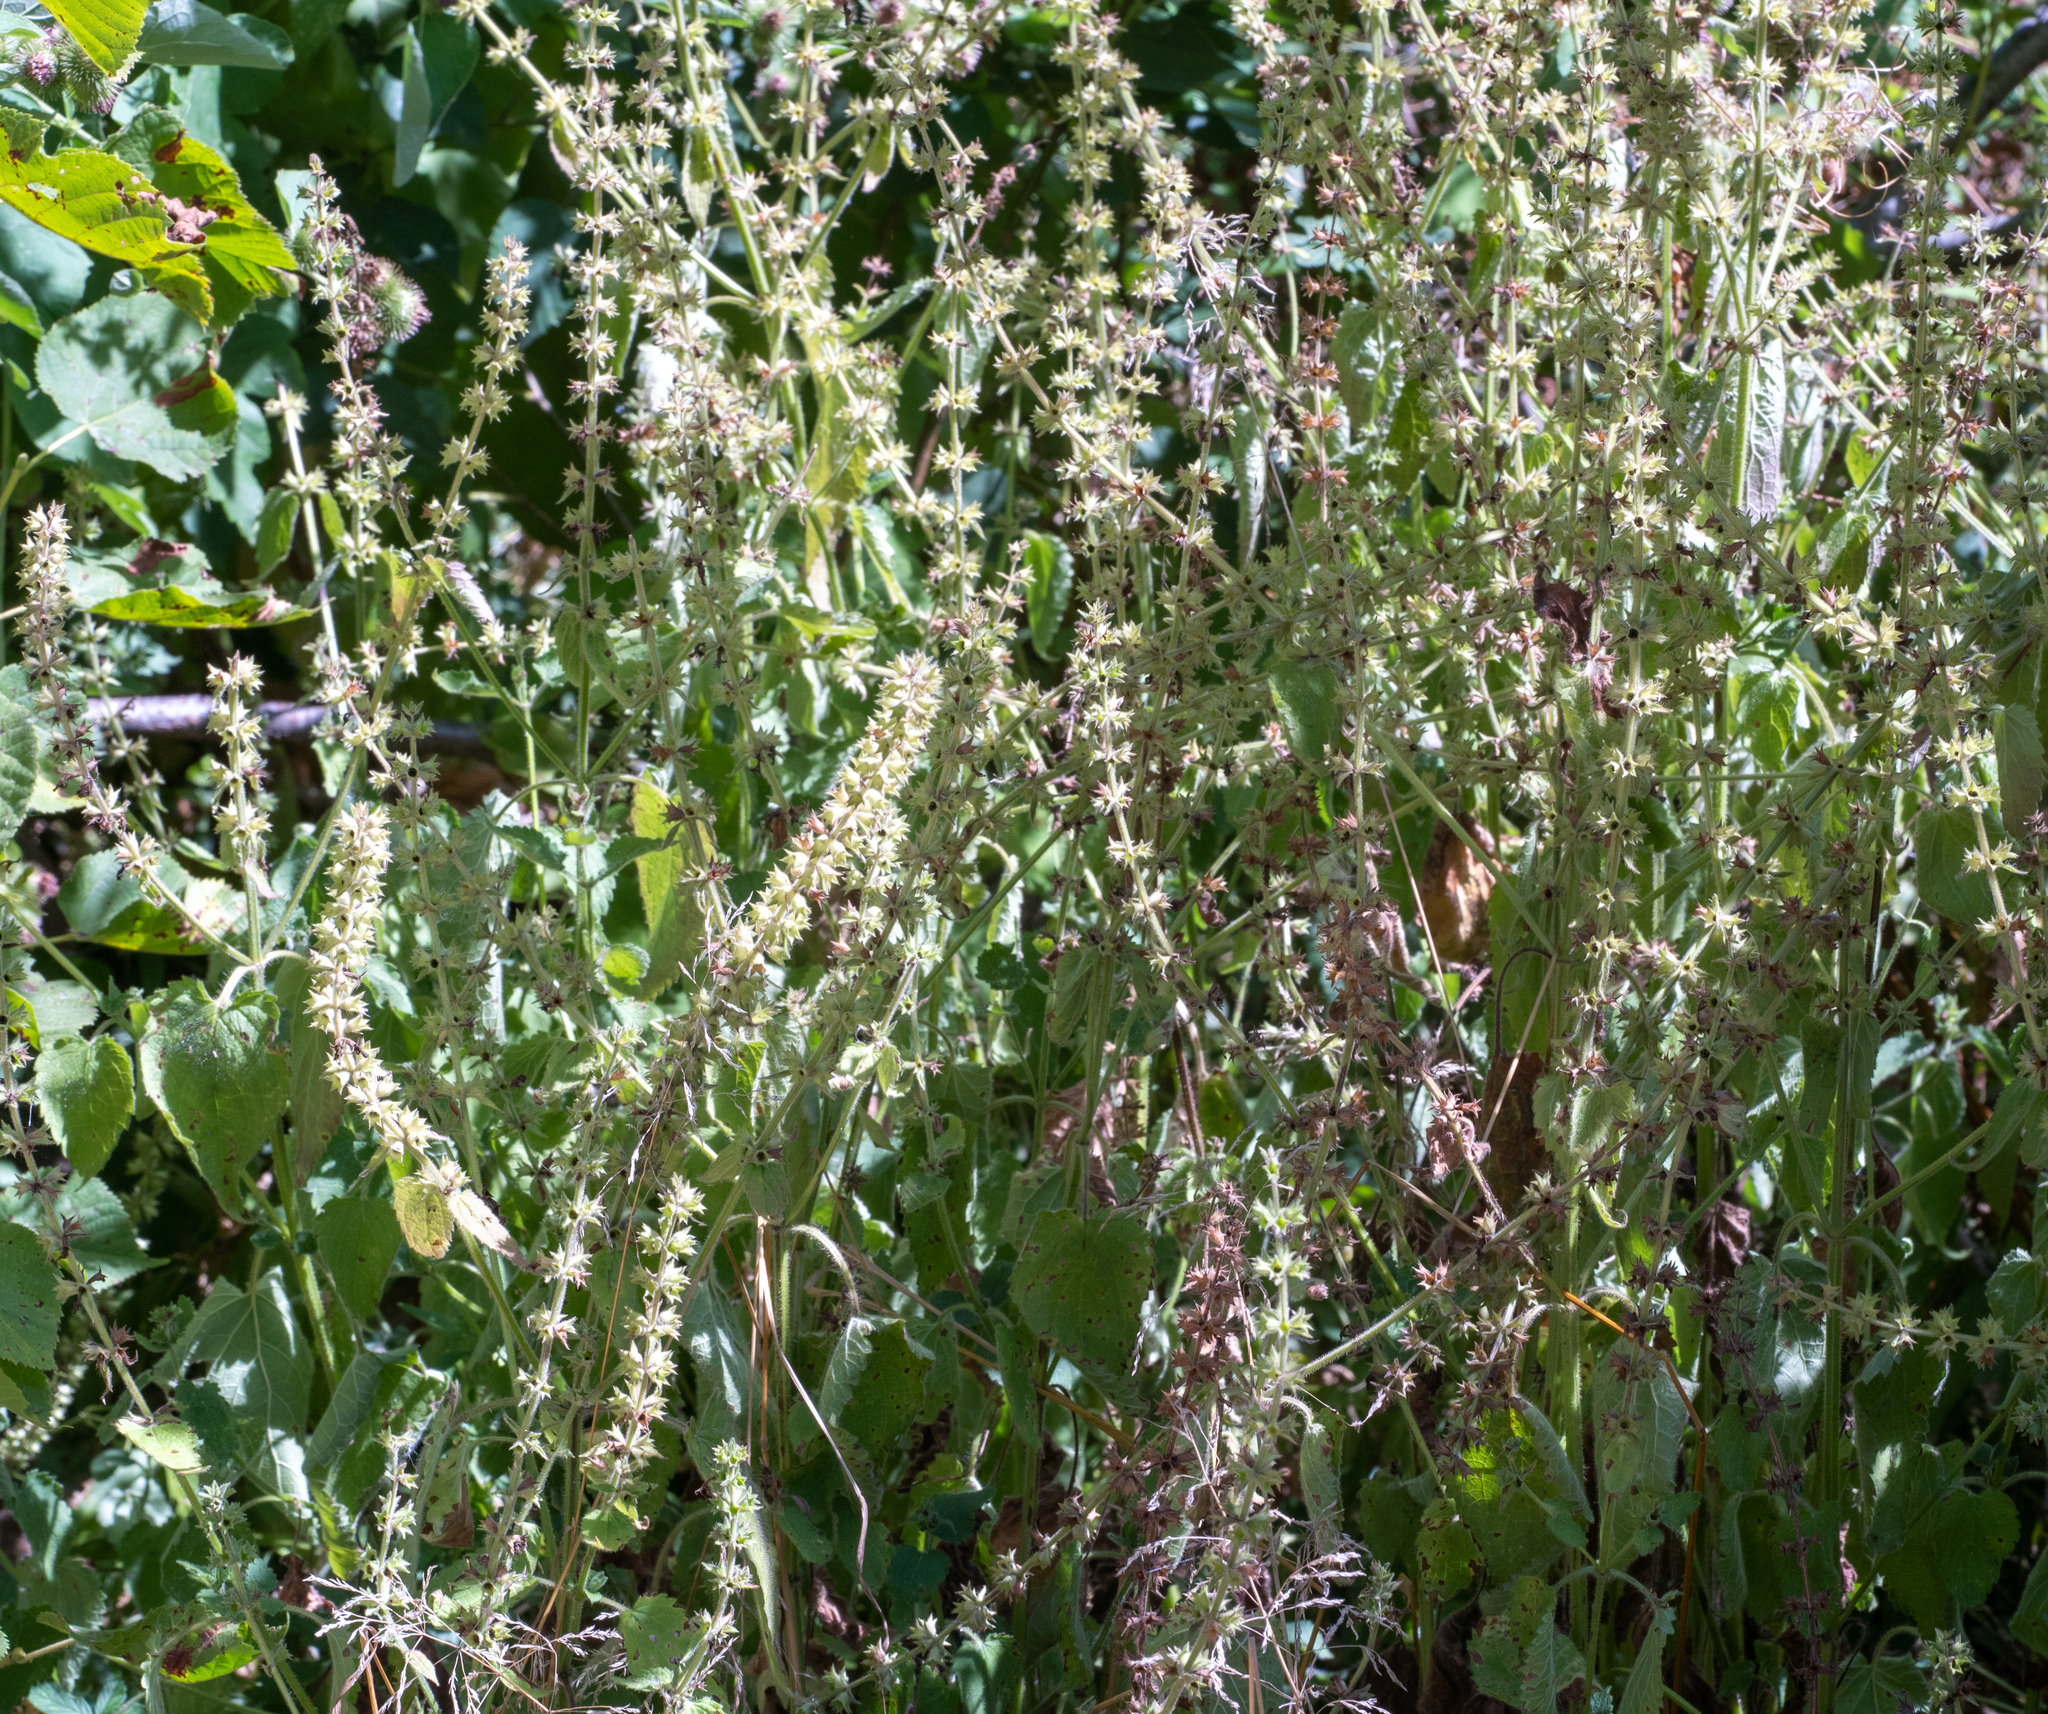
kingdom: Plantae
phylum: Tracheophyta
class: Magnoliopsida
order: Lamiales
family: Lamiaceae
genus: Stachys
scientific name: Stachys sylvatica
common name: Hedge woundwort
